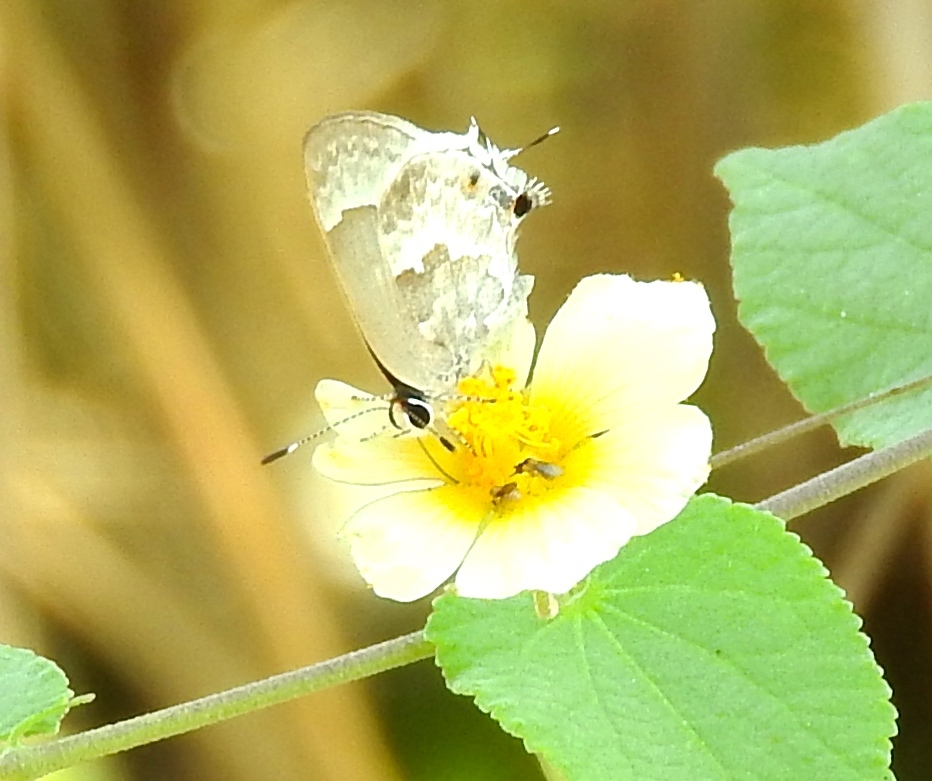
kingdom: Animalia
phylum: Arthropoda
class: Insecta
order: Lepidoptera
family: Lycaenidae
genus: Strymon
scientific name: Strymon albata
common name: White scrub-hairstreak
